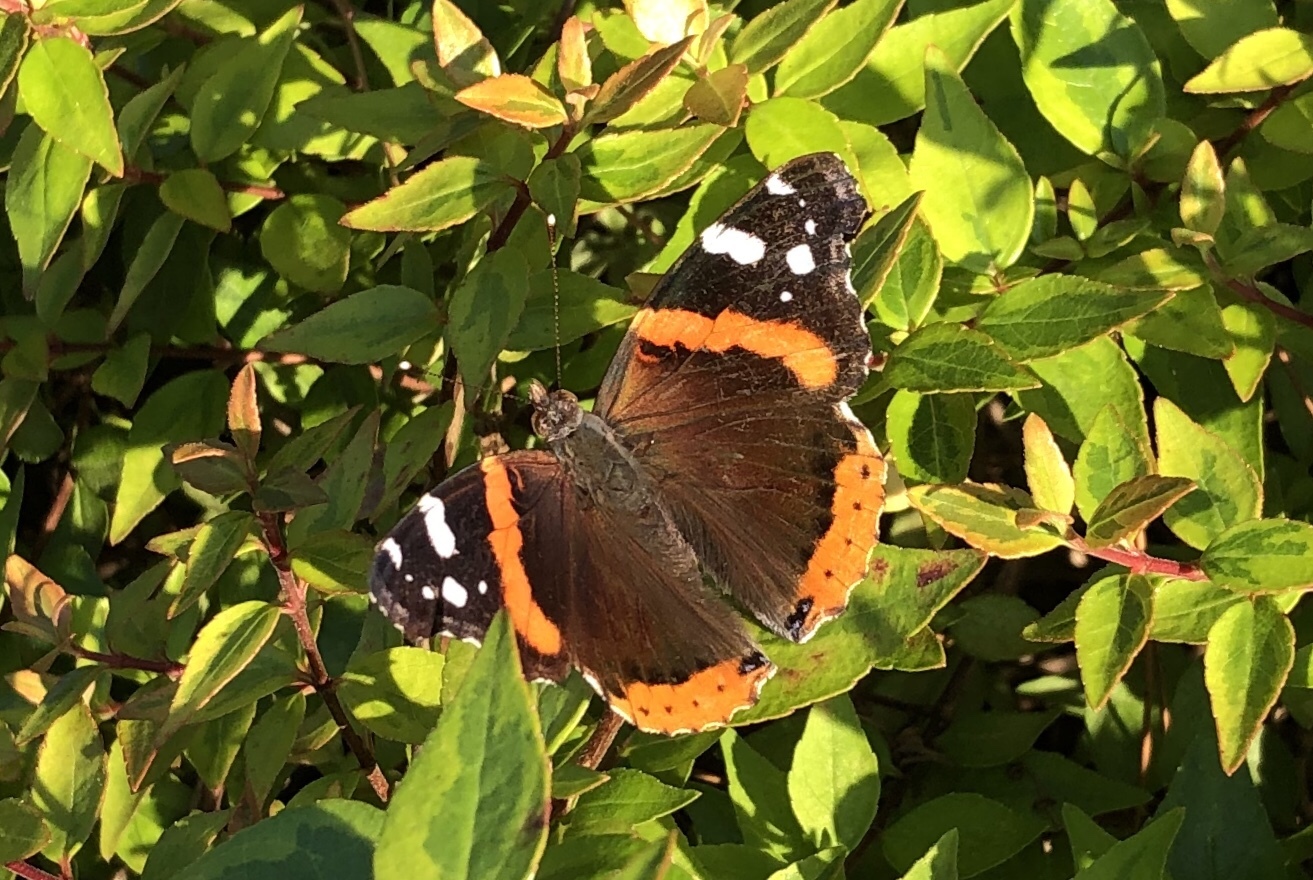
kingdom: Animalia
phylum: Arthropoda
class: Insecta
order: Lepidoptera
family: Nymphalidae
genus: Vanessa
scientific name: Vanessa atalanta
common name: Red admiral
